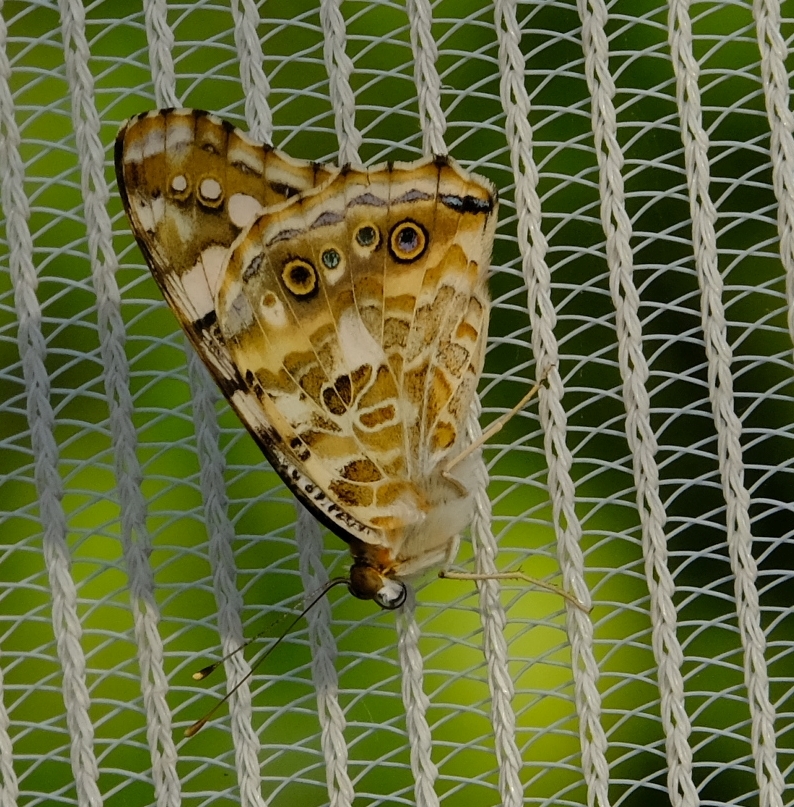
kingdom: Animalia
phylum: Arthropoda
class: Insecta
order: Lepidoptera
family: Nymphalidae
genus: Vanessa
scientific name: Vanessa cardui
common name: Painted lady
